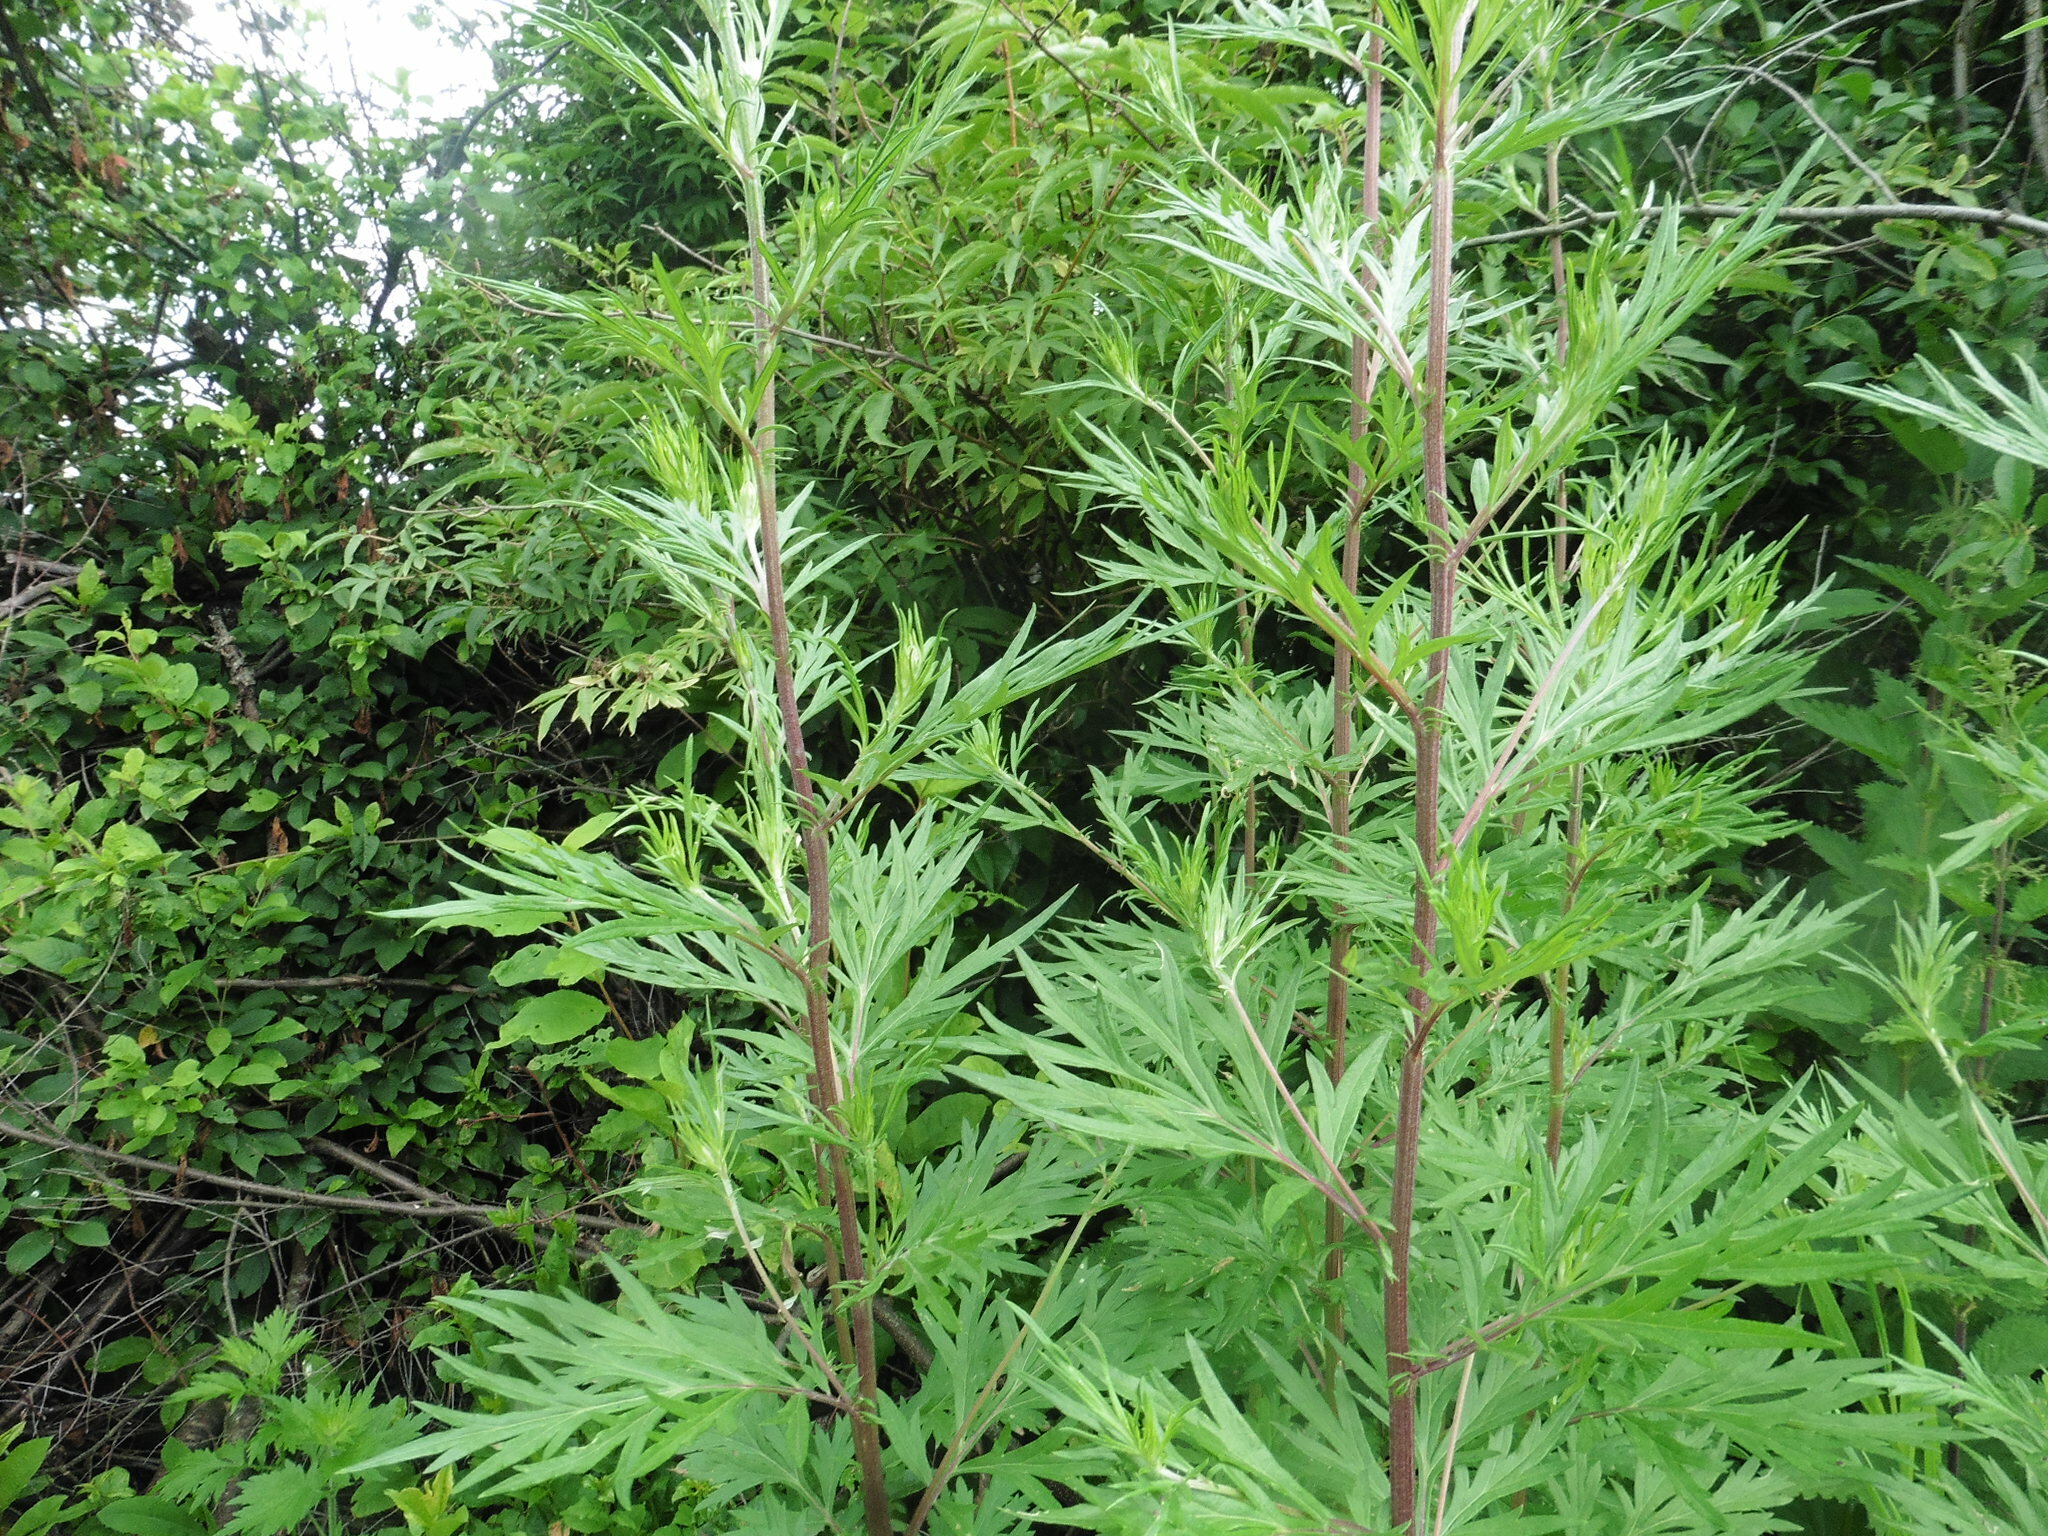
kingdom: Plantae
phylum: Tracheophyta
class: Magnoliopsida
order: Asterales
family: Asteraceae
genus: Artemisia
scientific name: Artemisia vulgaris
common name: Mugwort
